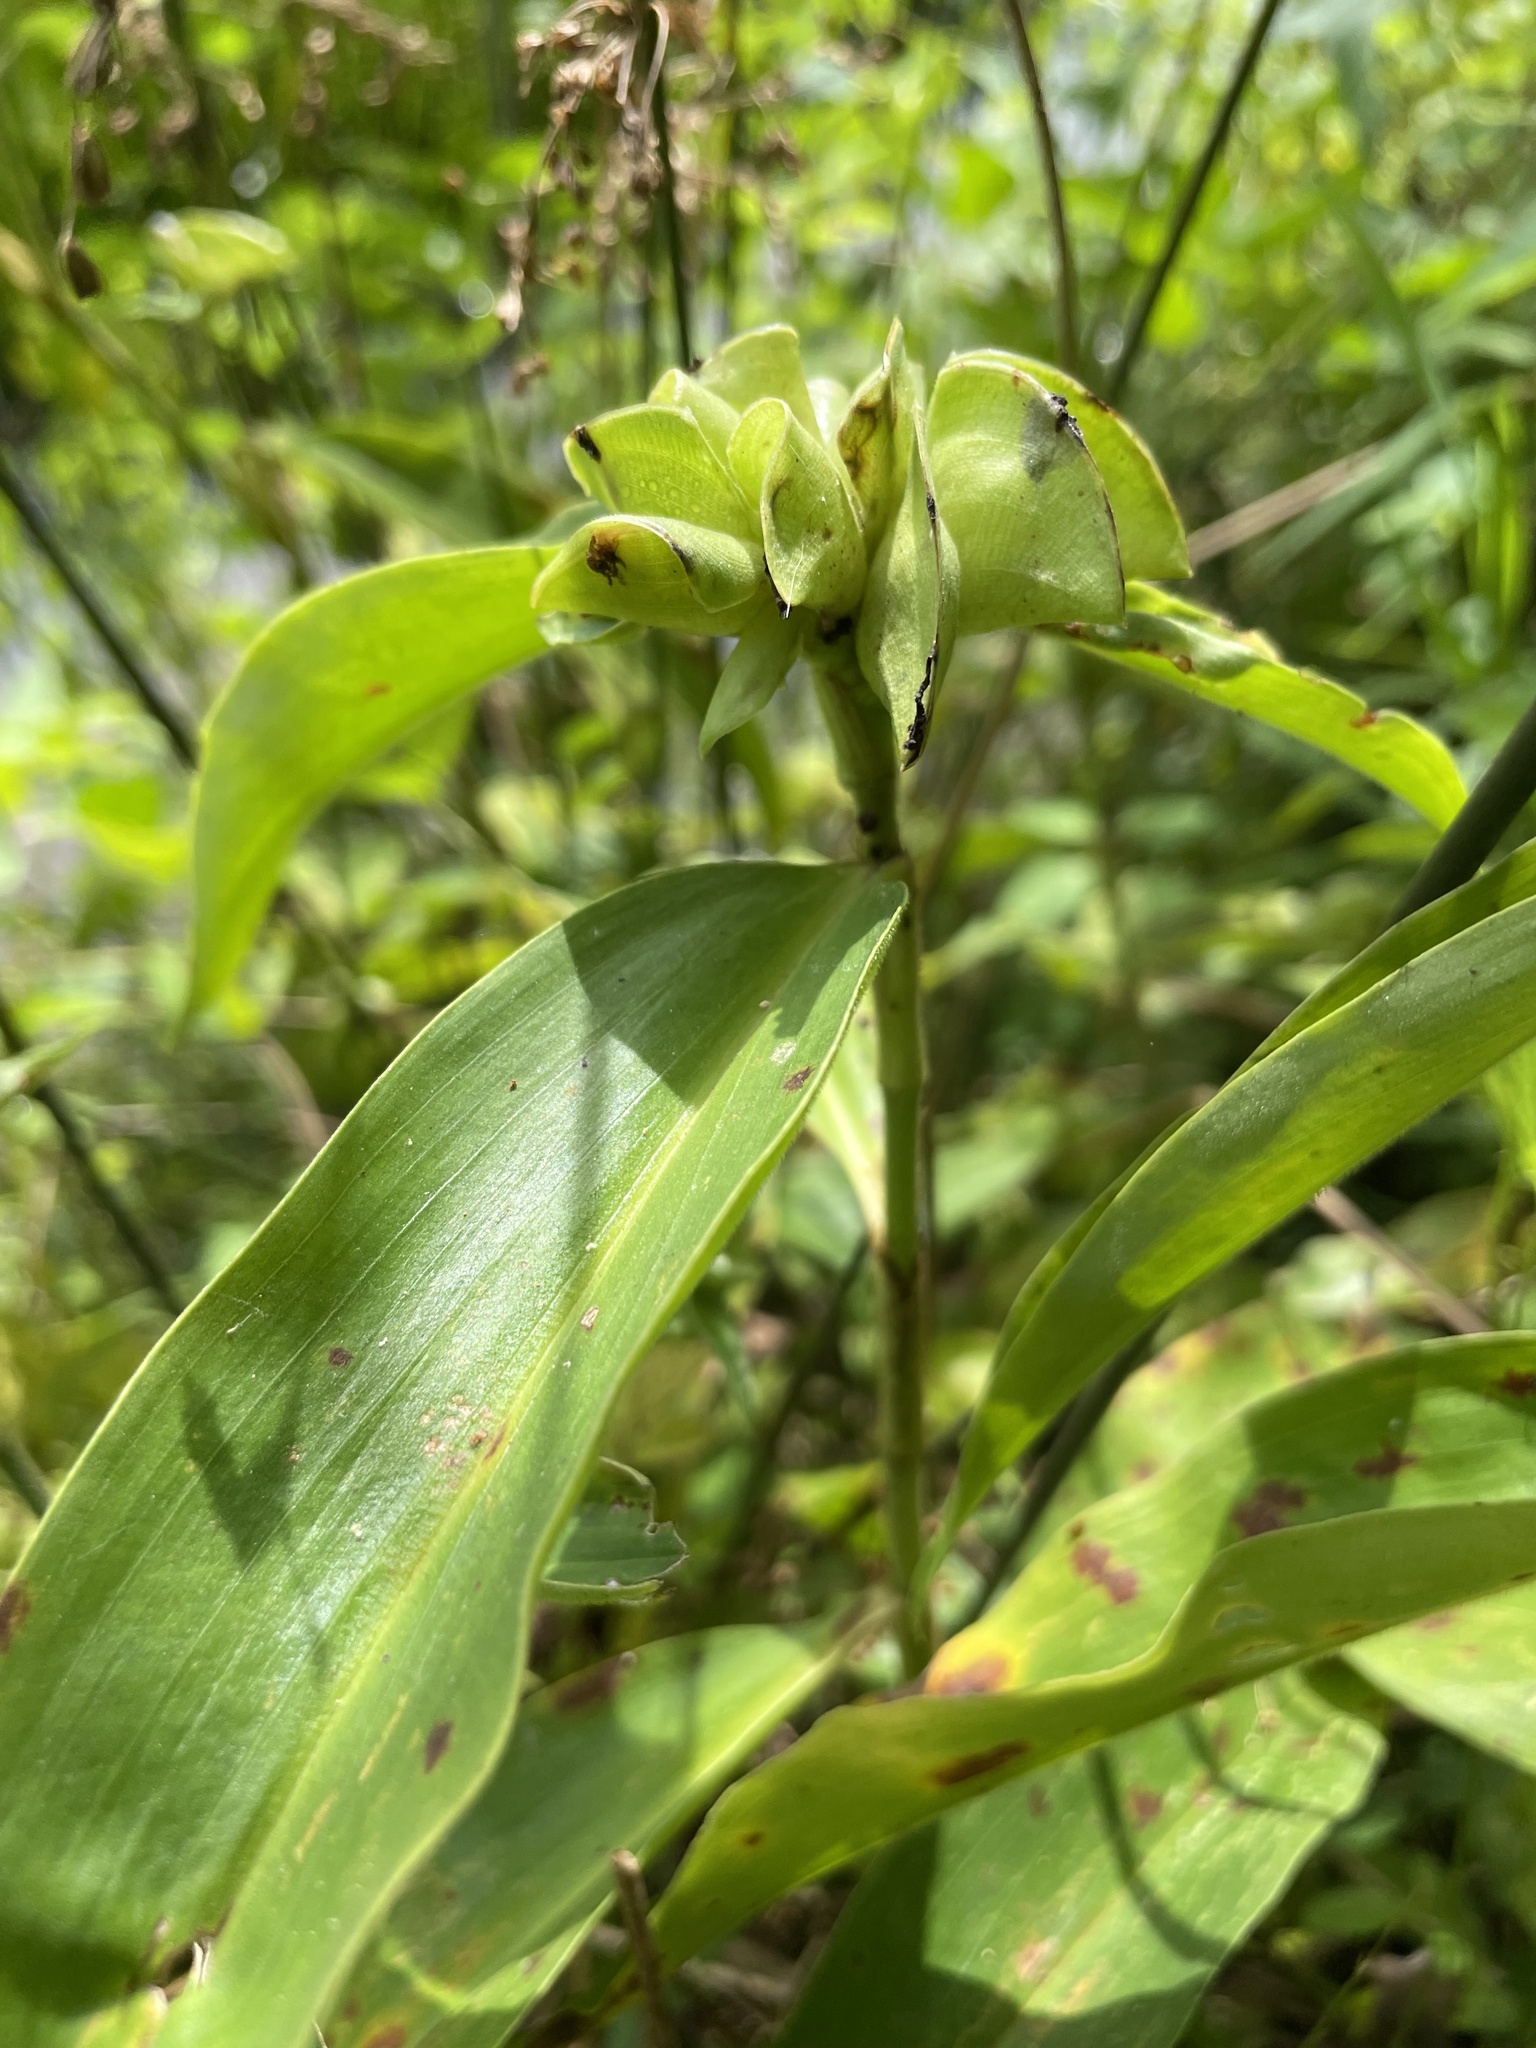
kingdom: Plantae
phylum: Tracheophyta
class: Liliopsida
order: Commelinales
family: Commelinaceae
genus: Commelina
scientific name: Commelina virginica
